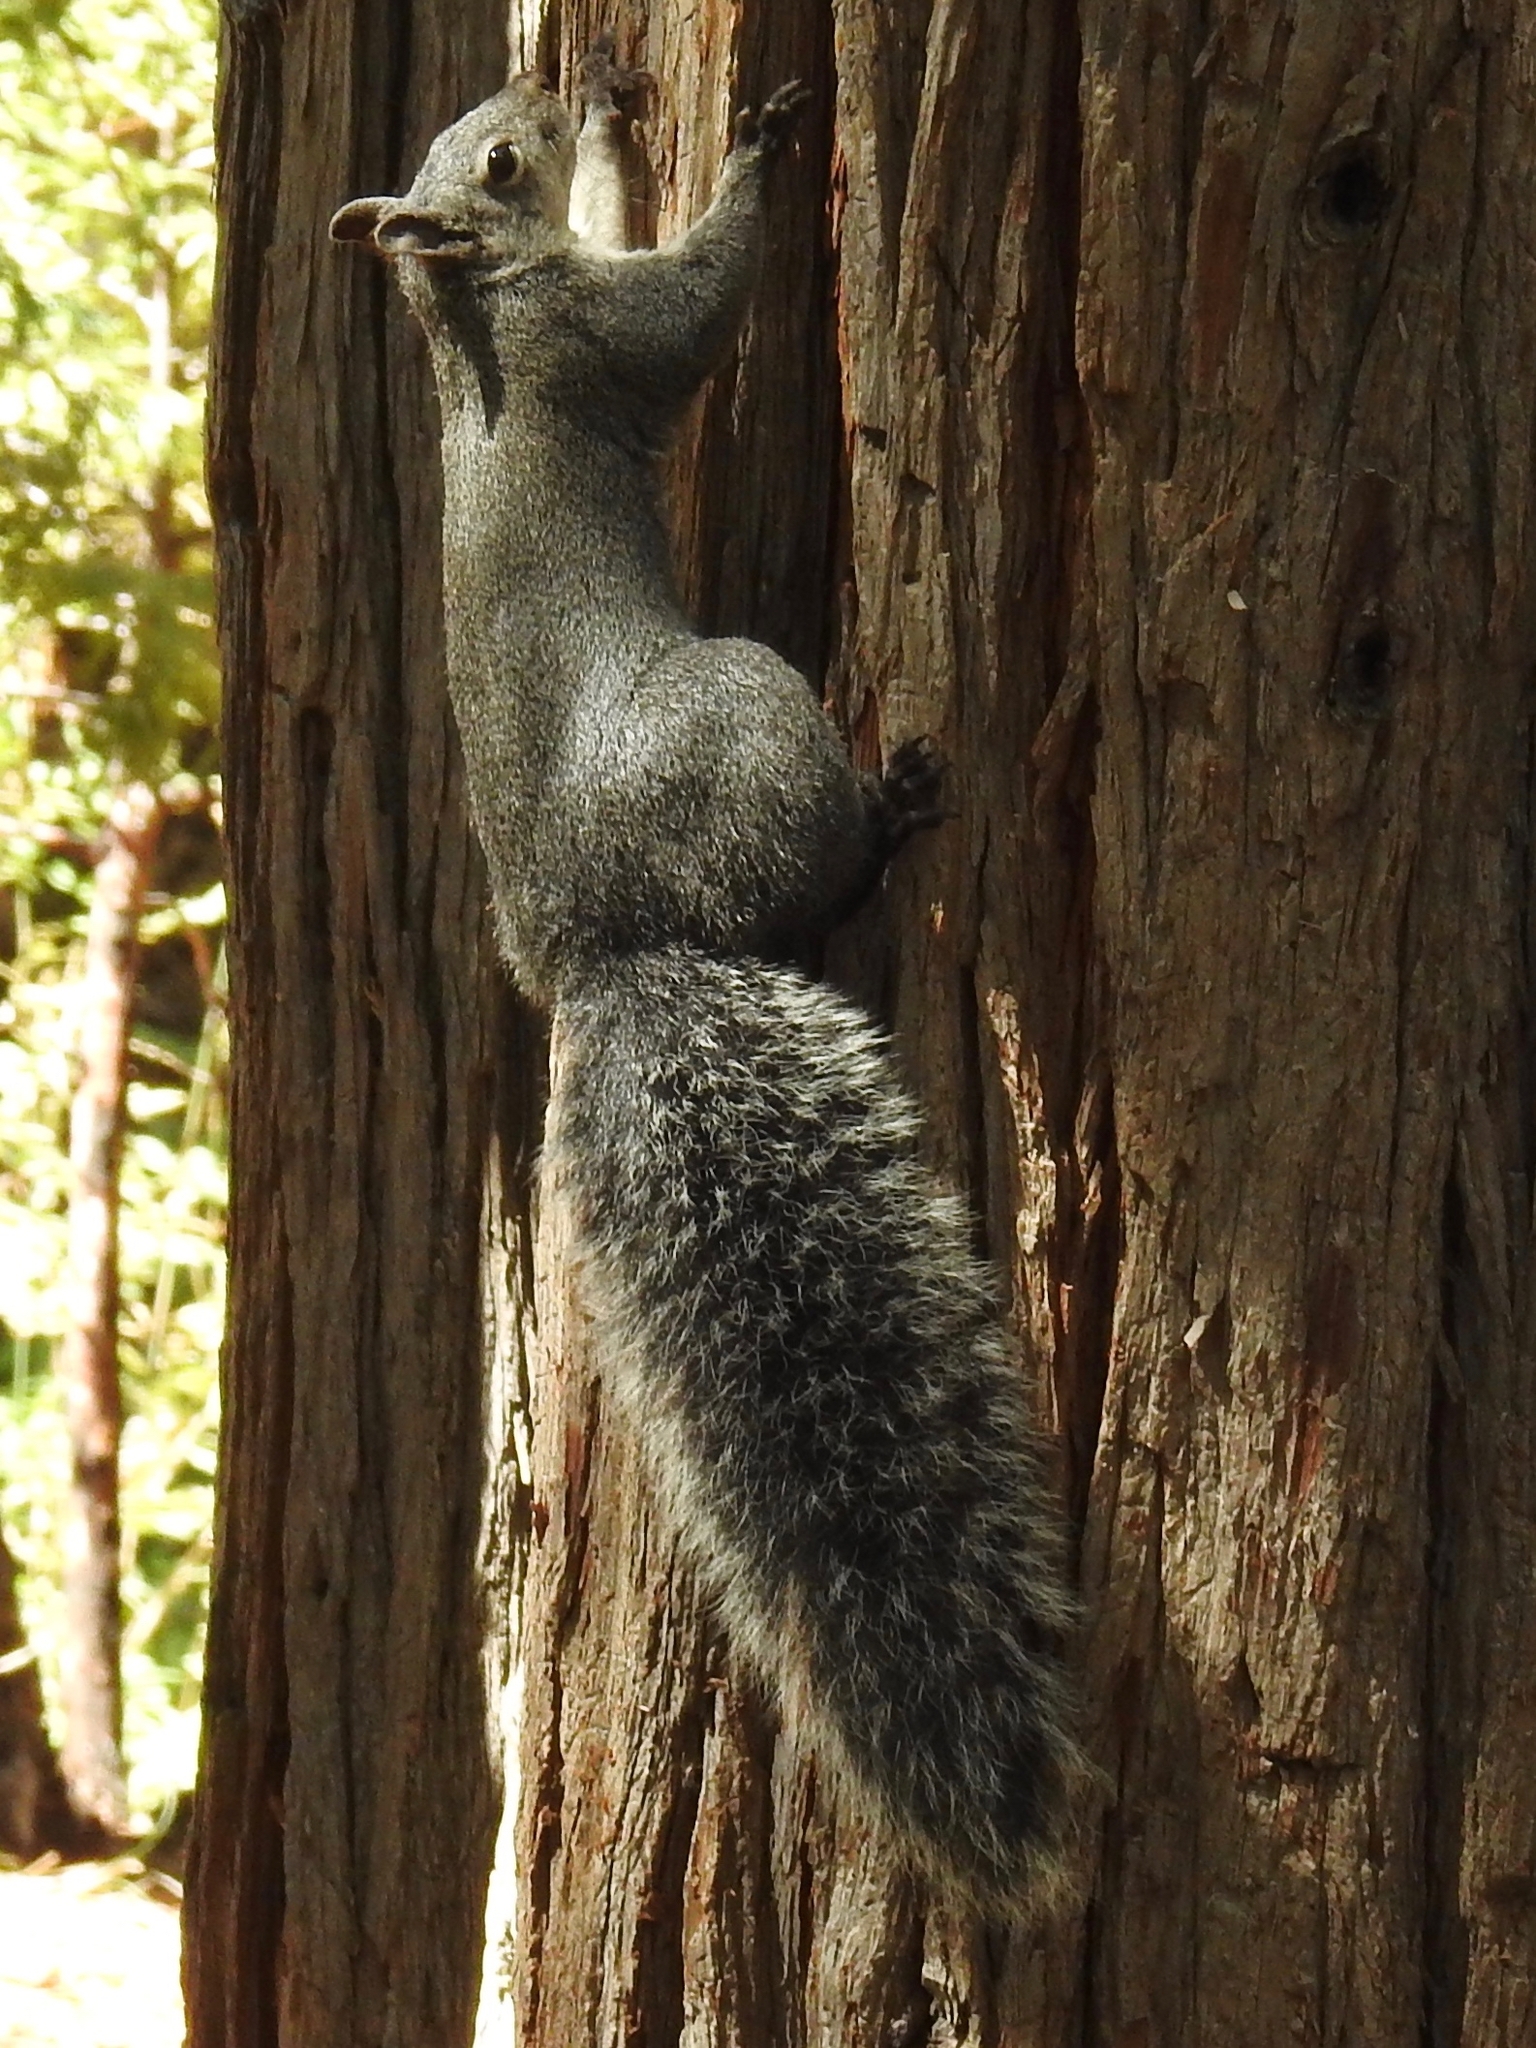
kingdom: Animalia
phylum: Chordata
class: Mammalia
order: Rodentia
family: Sciuridae
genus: Sciurus
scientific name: Sciurus griseus
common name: Western gray squirrel
